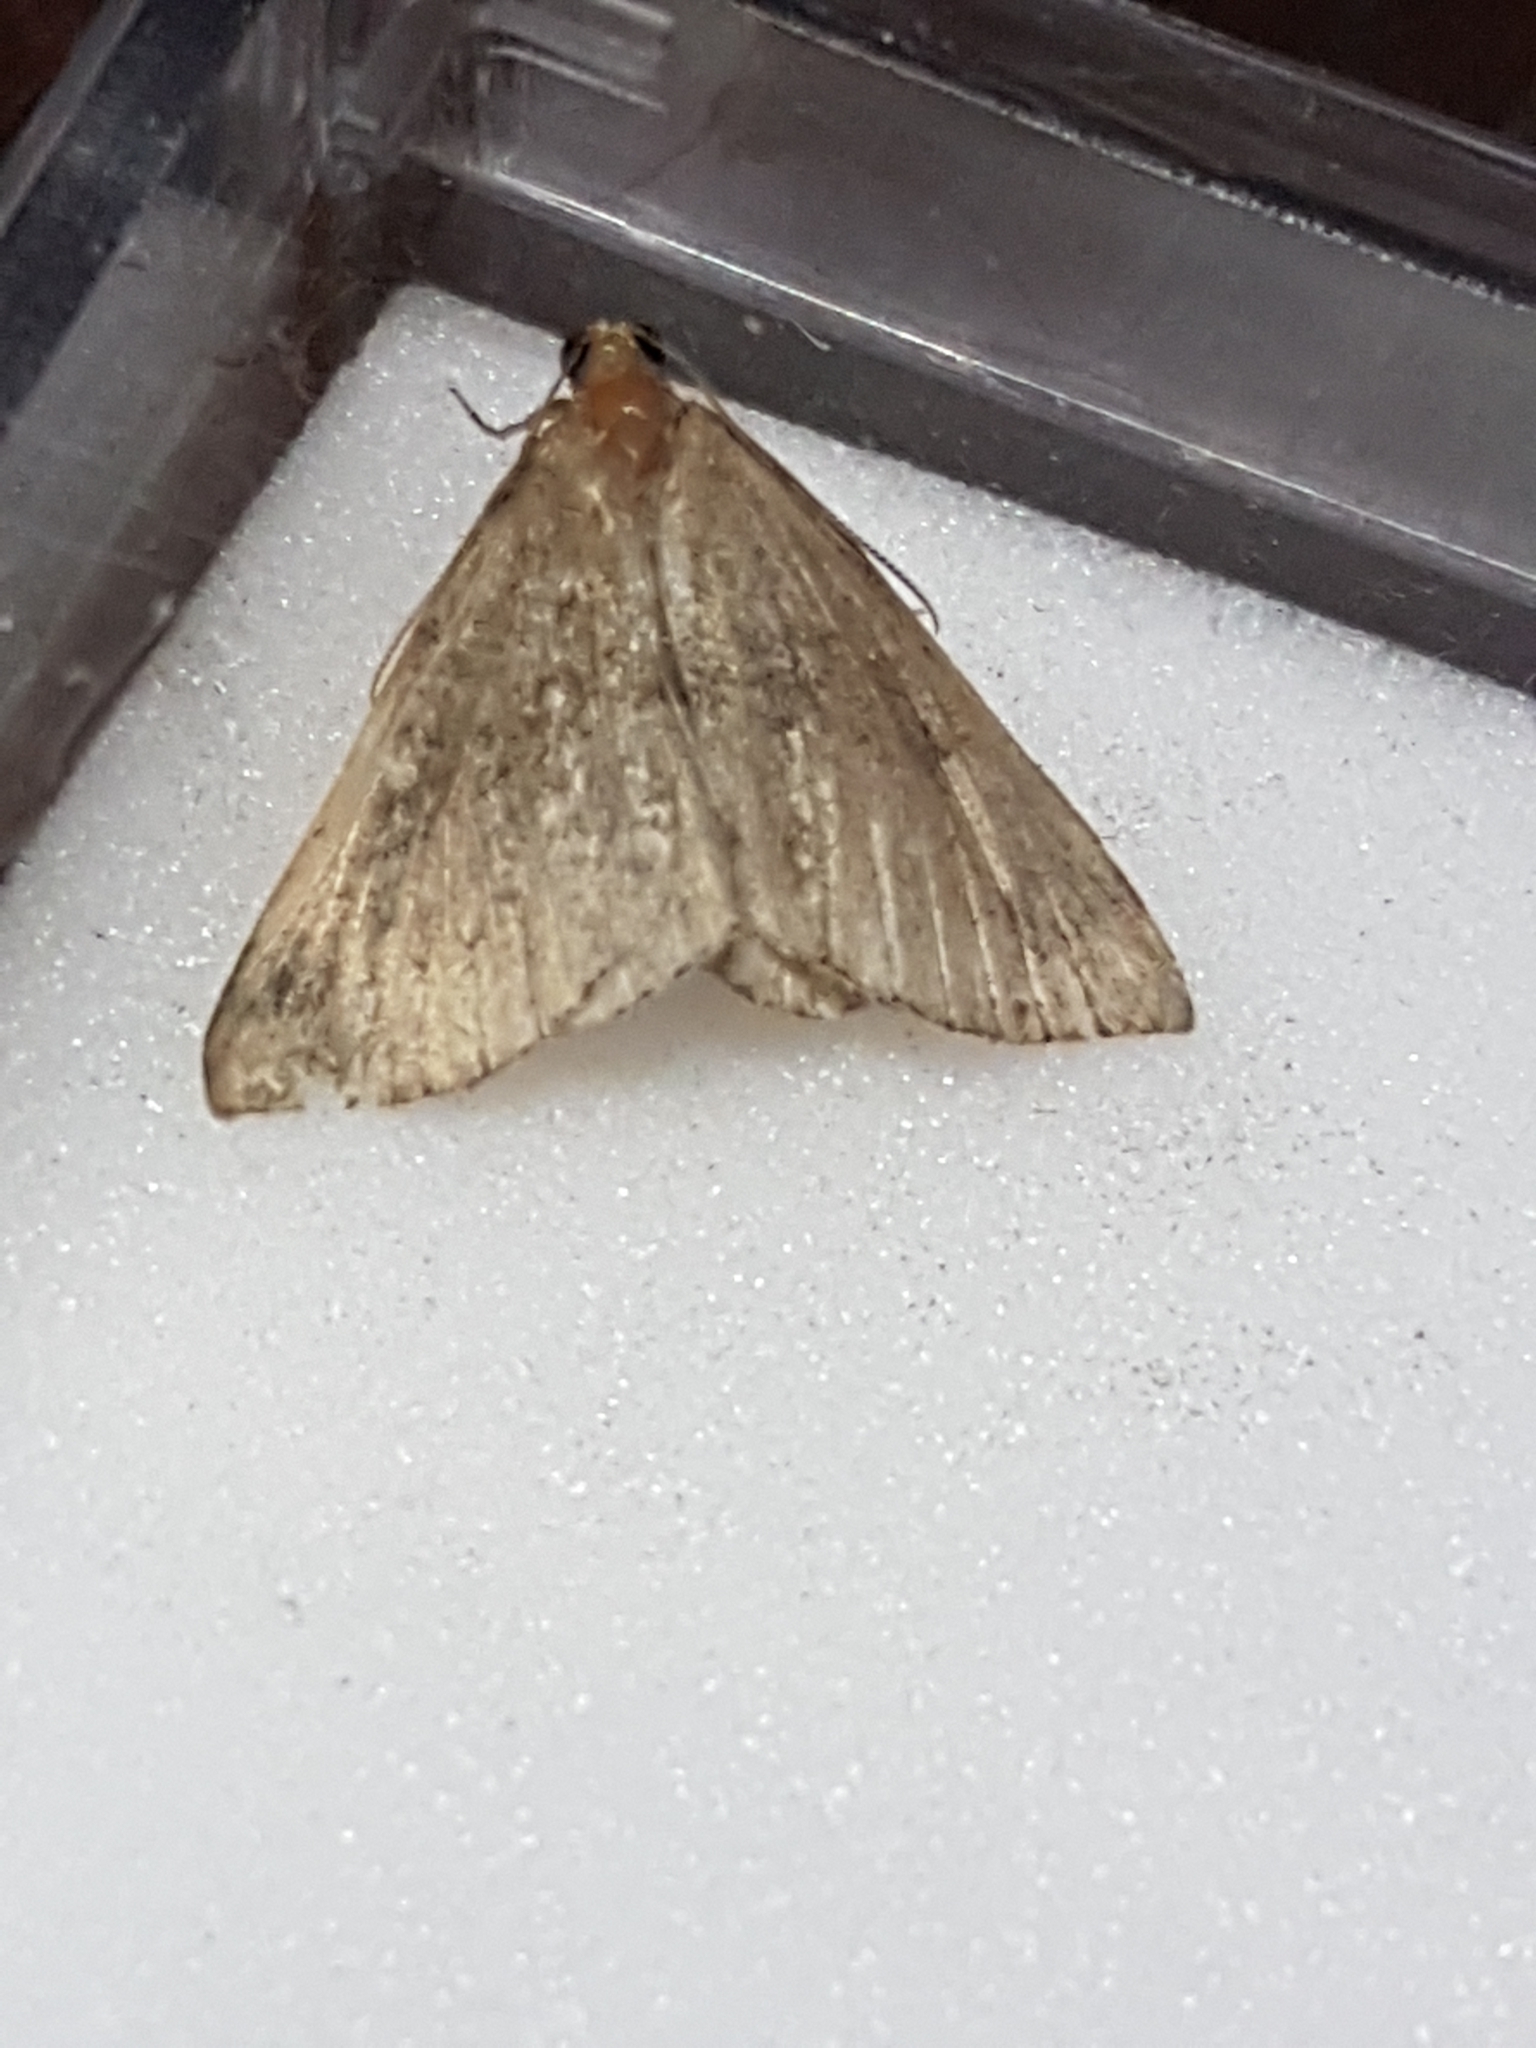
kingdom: Animalia
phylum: Arthropoda
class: Insecta
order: Lepidoptera
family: Erebidae
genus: Hypena
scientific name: Hypena proboscidalis
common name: Snout
